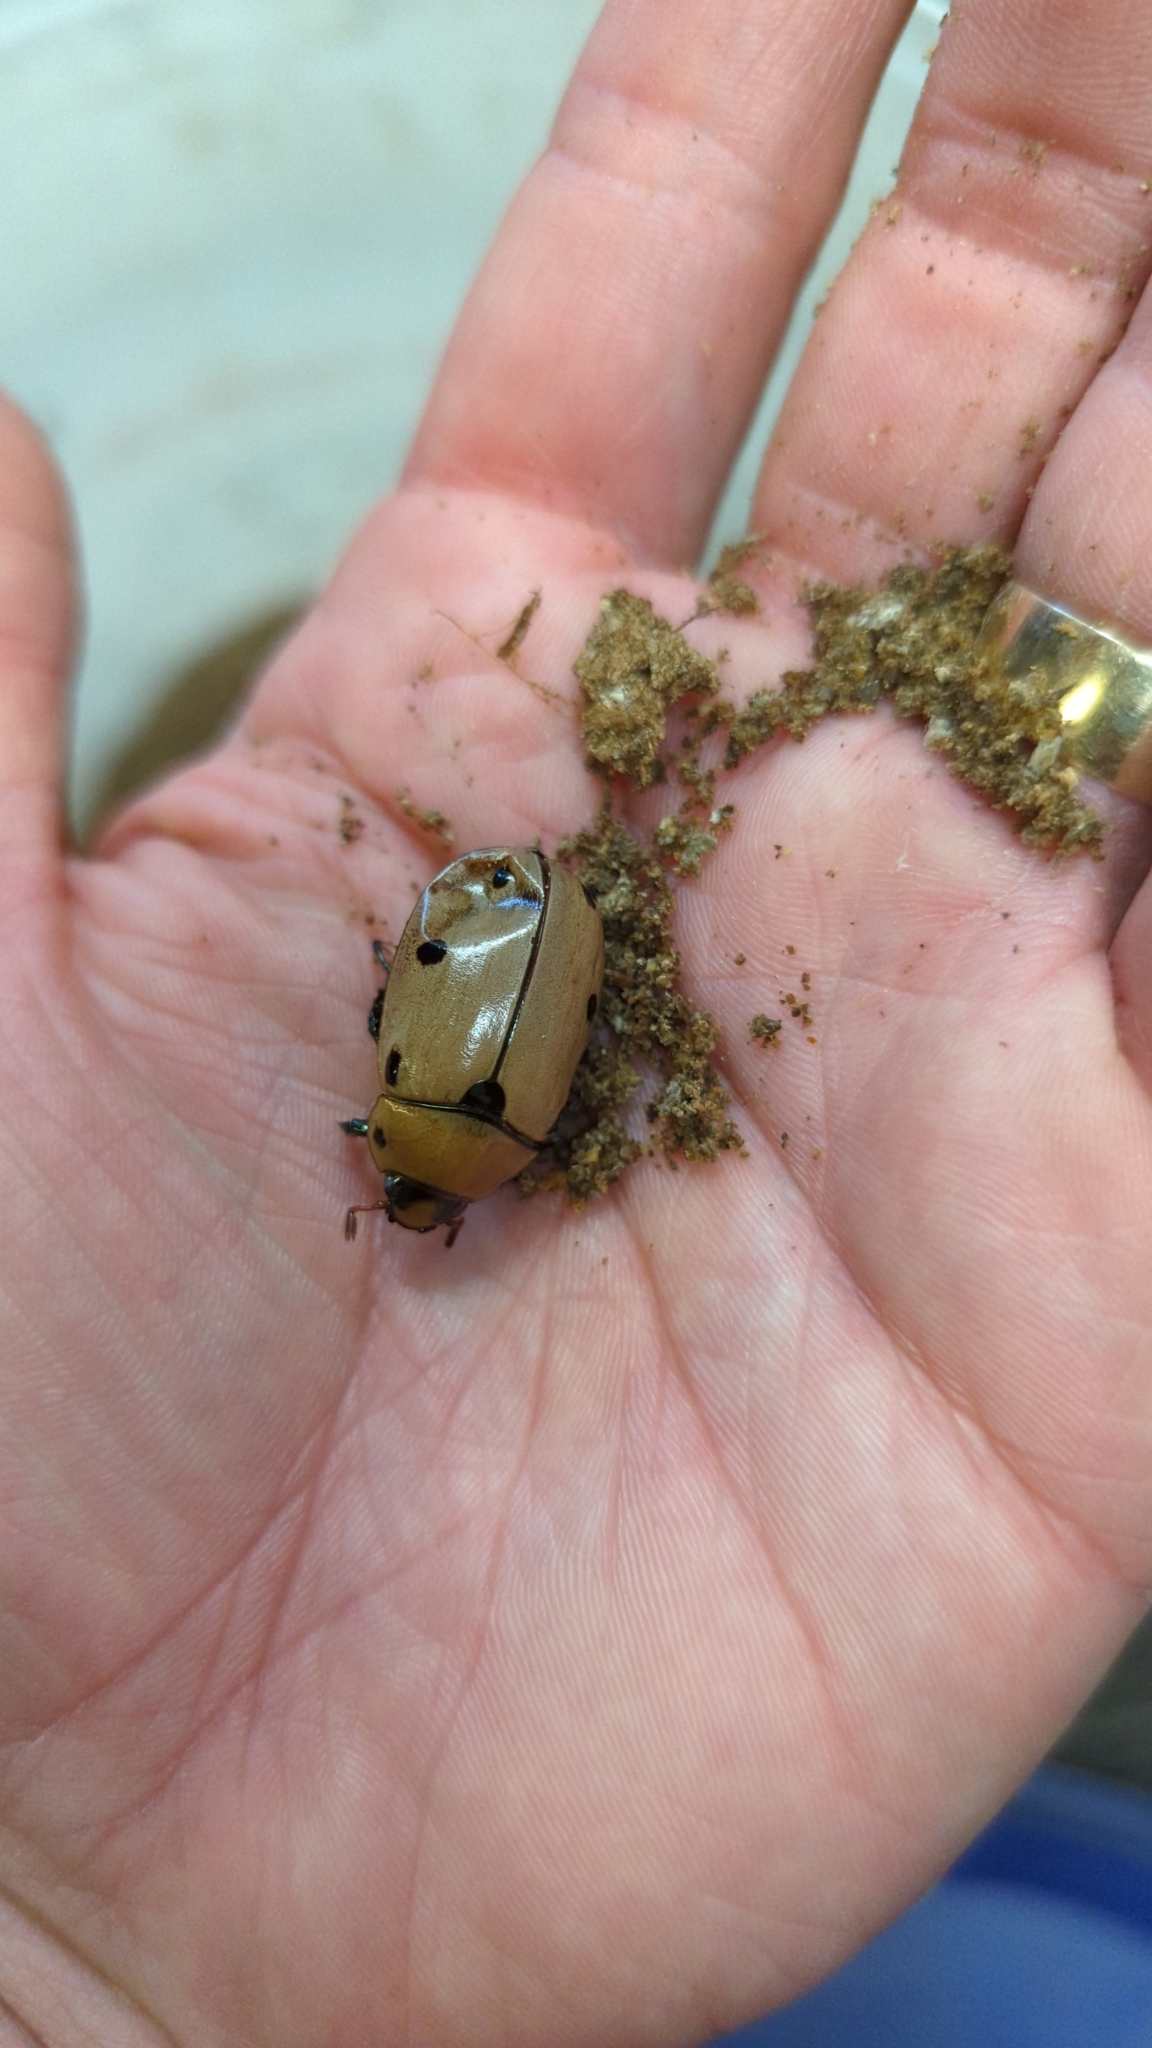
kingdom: Animalia
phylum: Arthropoda
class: Insecta
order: Coleoptera
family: Scarabaeidae
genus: Pelidnota
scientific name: Pelidnota punctata
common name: Grapevine beetle
